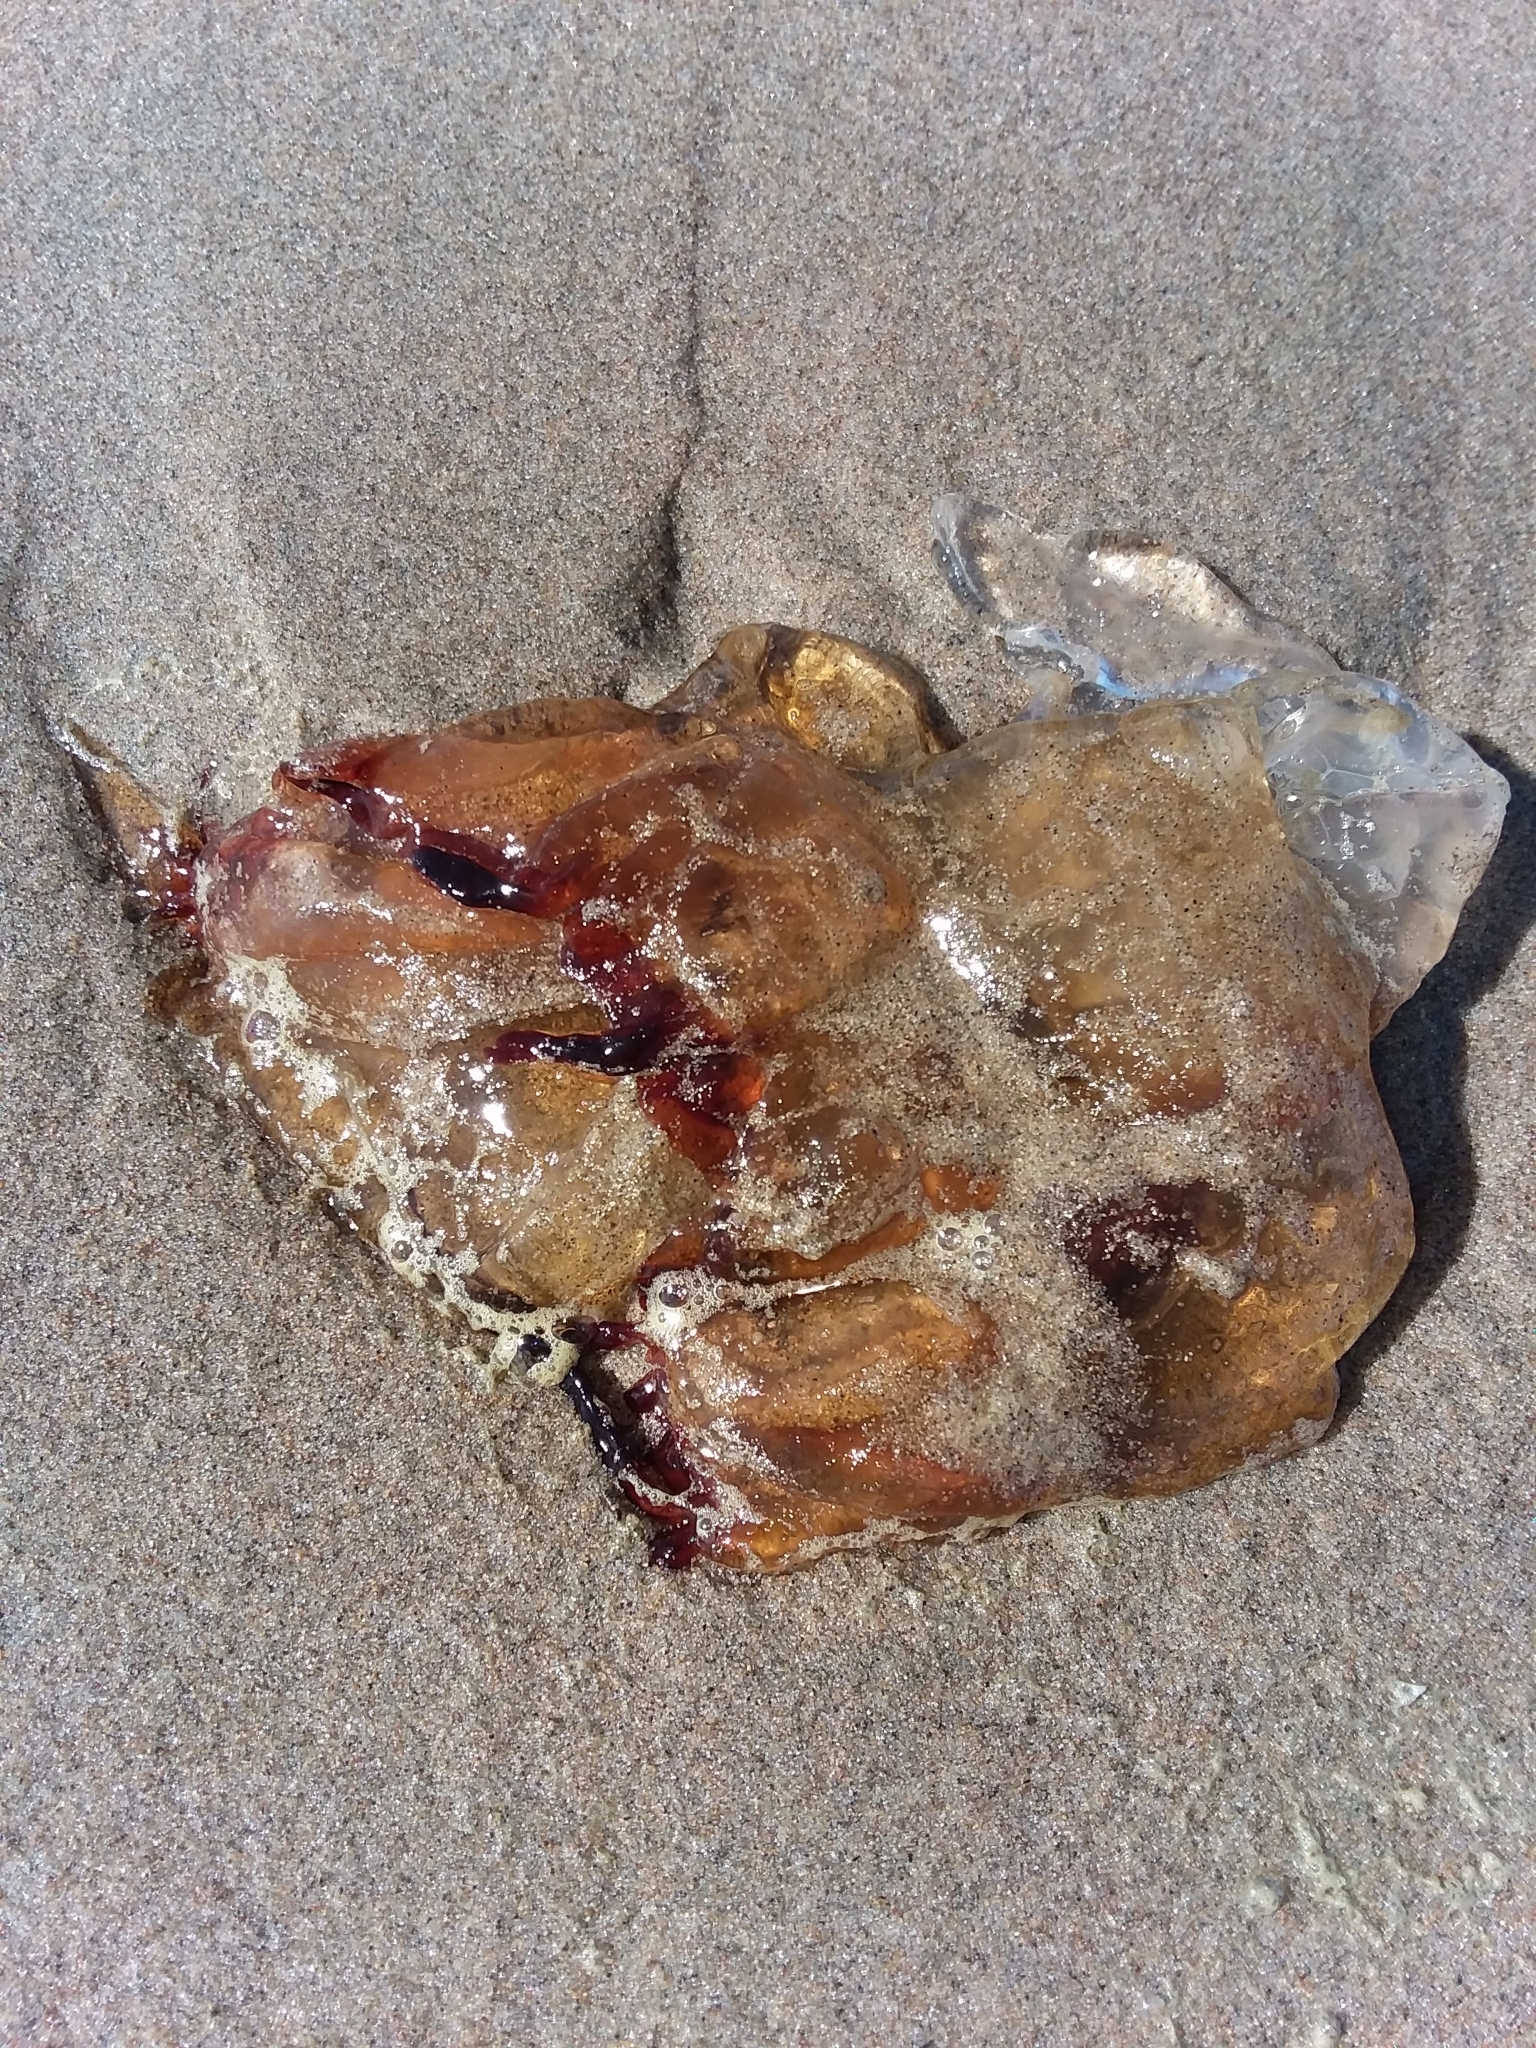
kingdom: Animalia
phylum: Cnidaria
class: Scyphozoa
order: Semaeostomeae
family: Pelagiidae
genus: Chrysaora
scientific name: Chrysaora fuscescens
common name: Sea nettle
